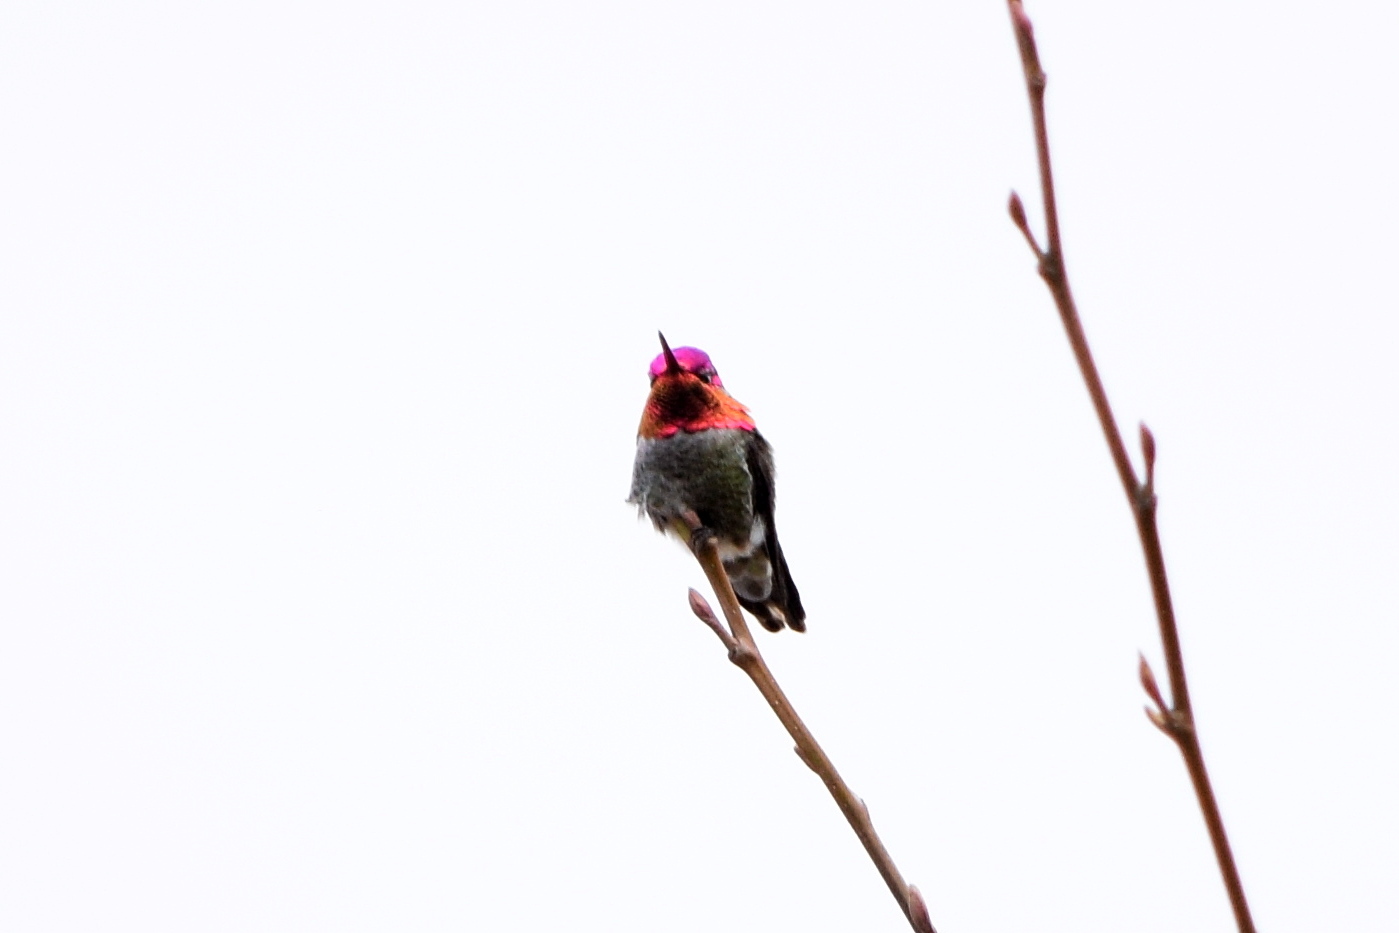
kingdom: Animalia
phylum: Chordata
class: Aves
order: Apodiformes
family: Trochilidae
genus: Calypte
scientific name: Calypte anna
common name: Anna's hummingbird
